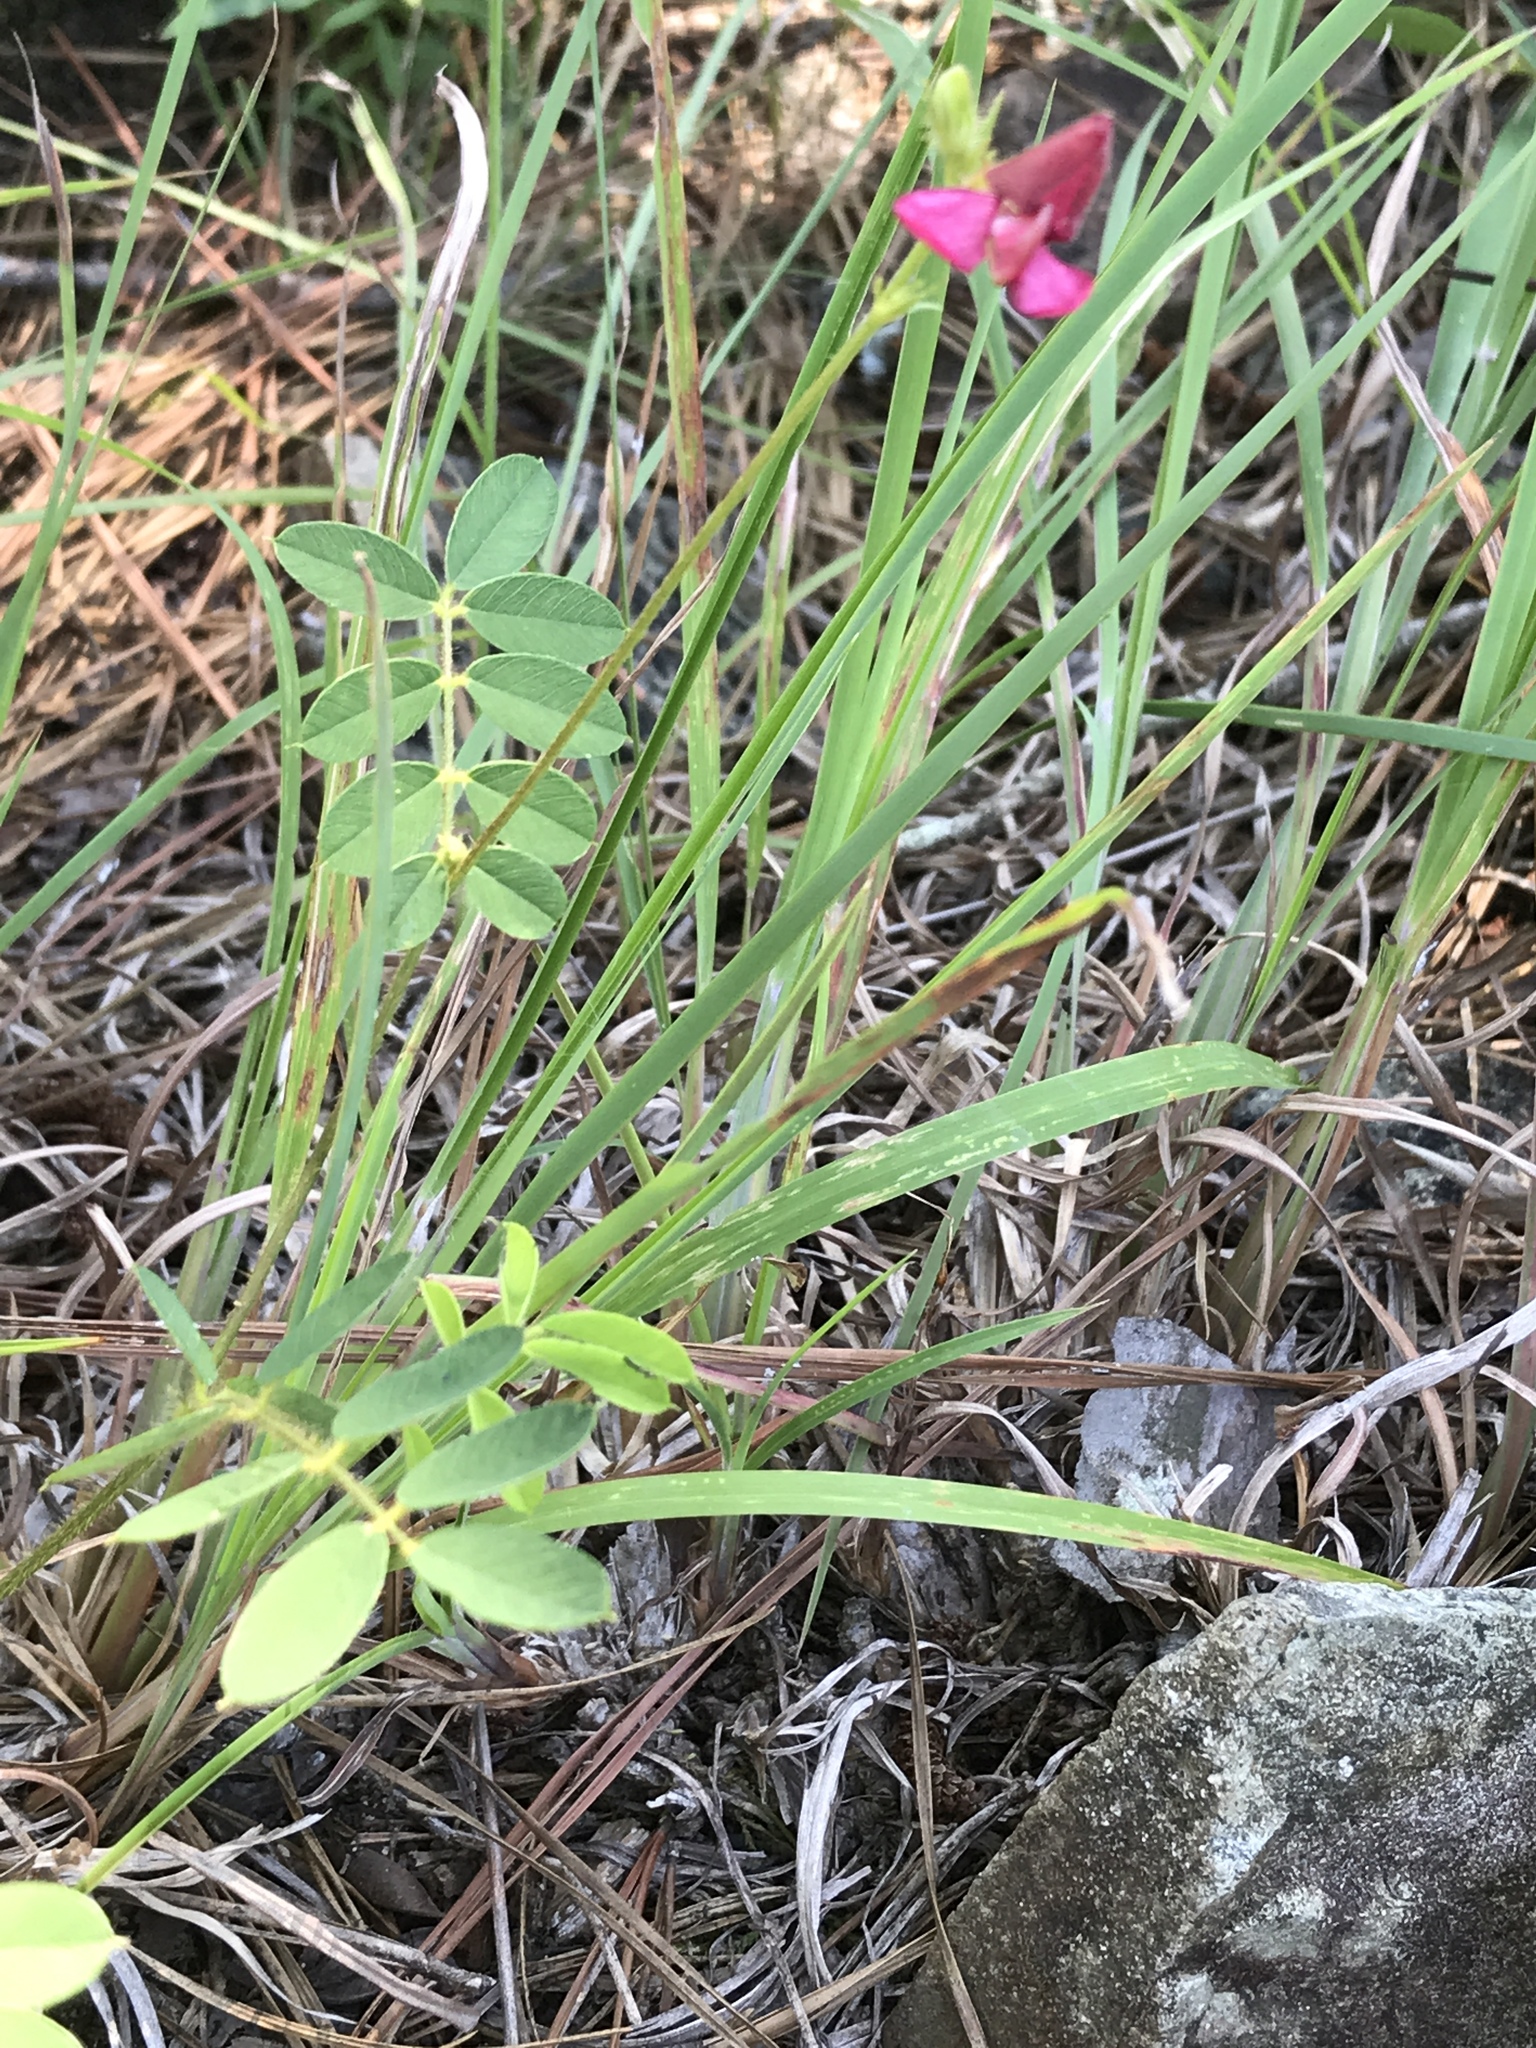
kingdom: Plantae
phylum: Tracheophyta
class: Magnoliopsida
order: Fabales
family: Fabaceae
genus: Tephrosia
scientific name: Tephrosia spicata
